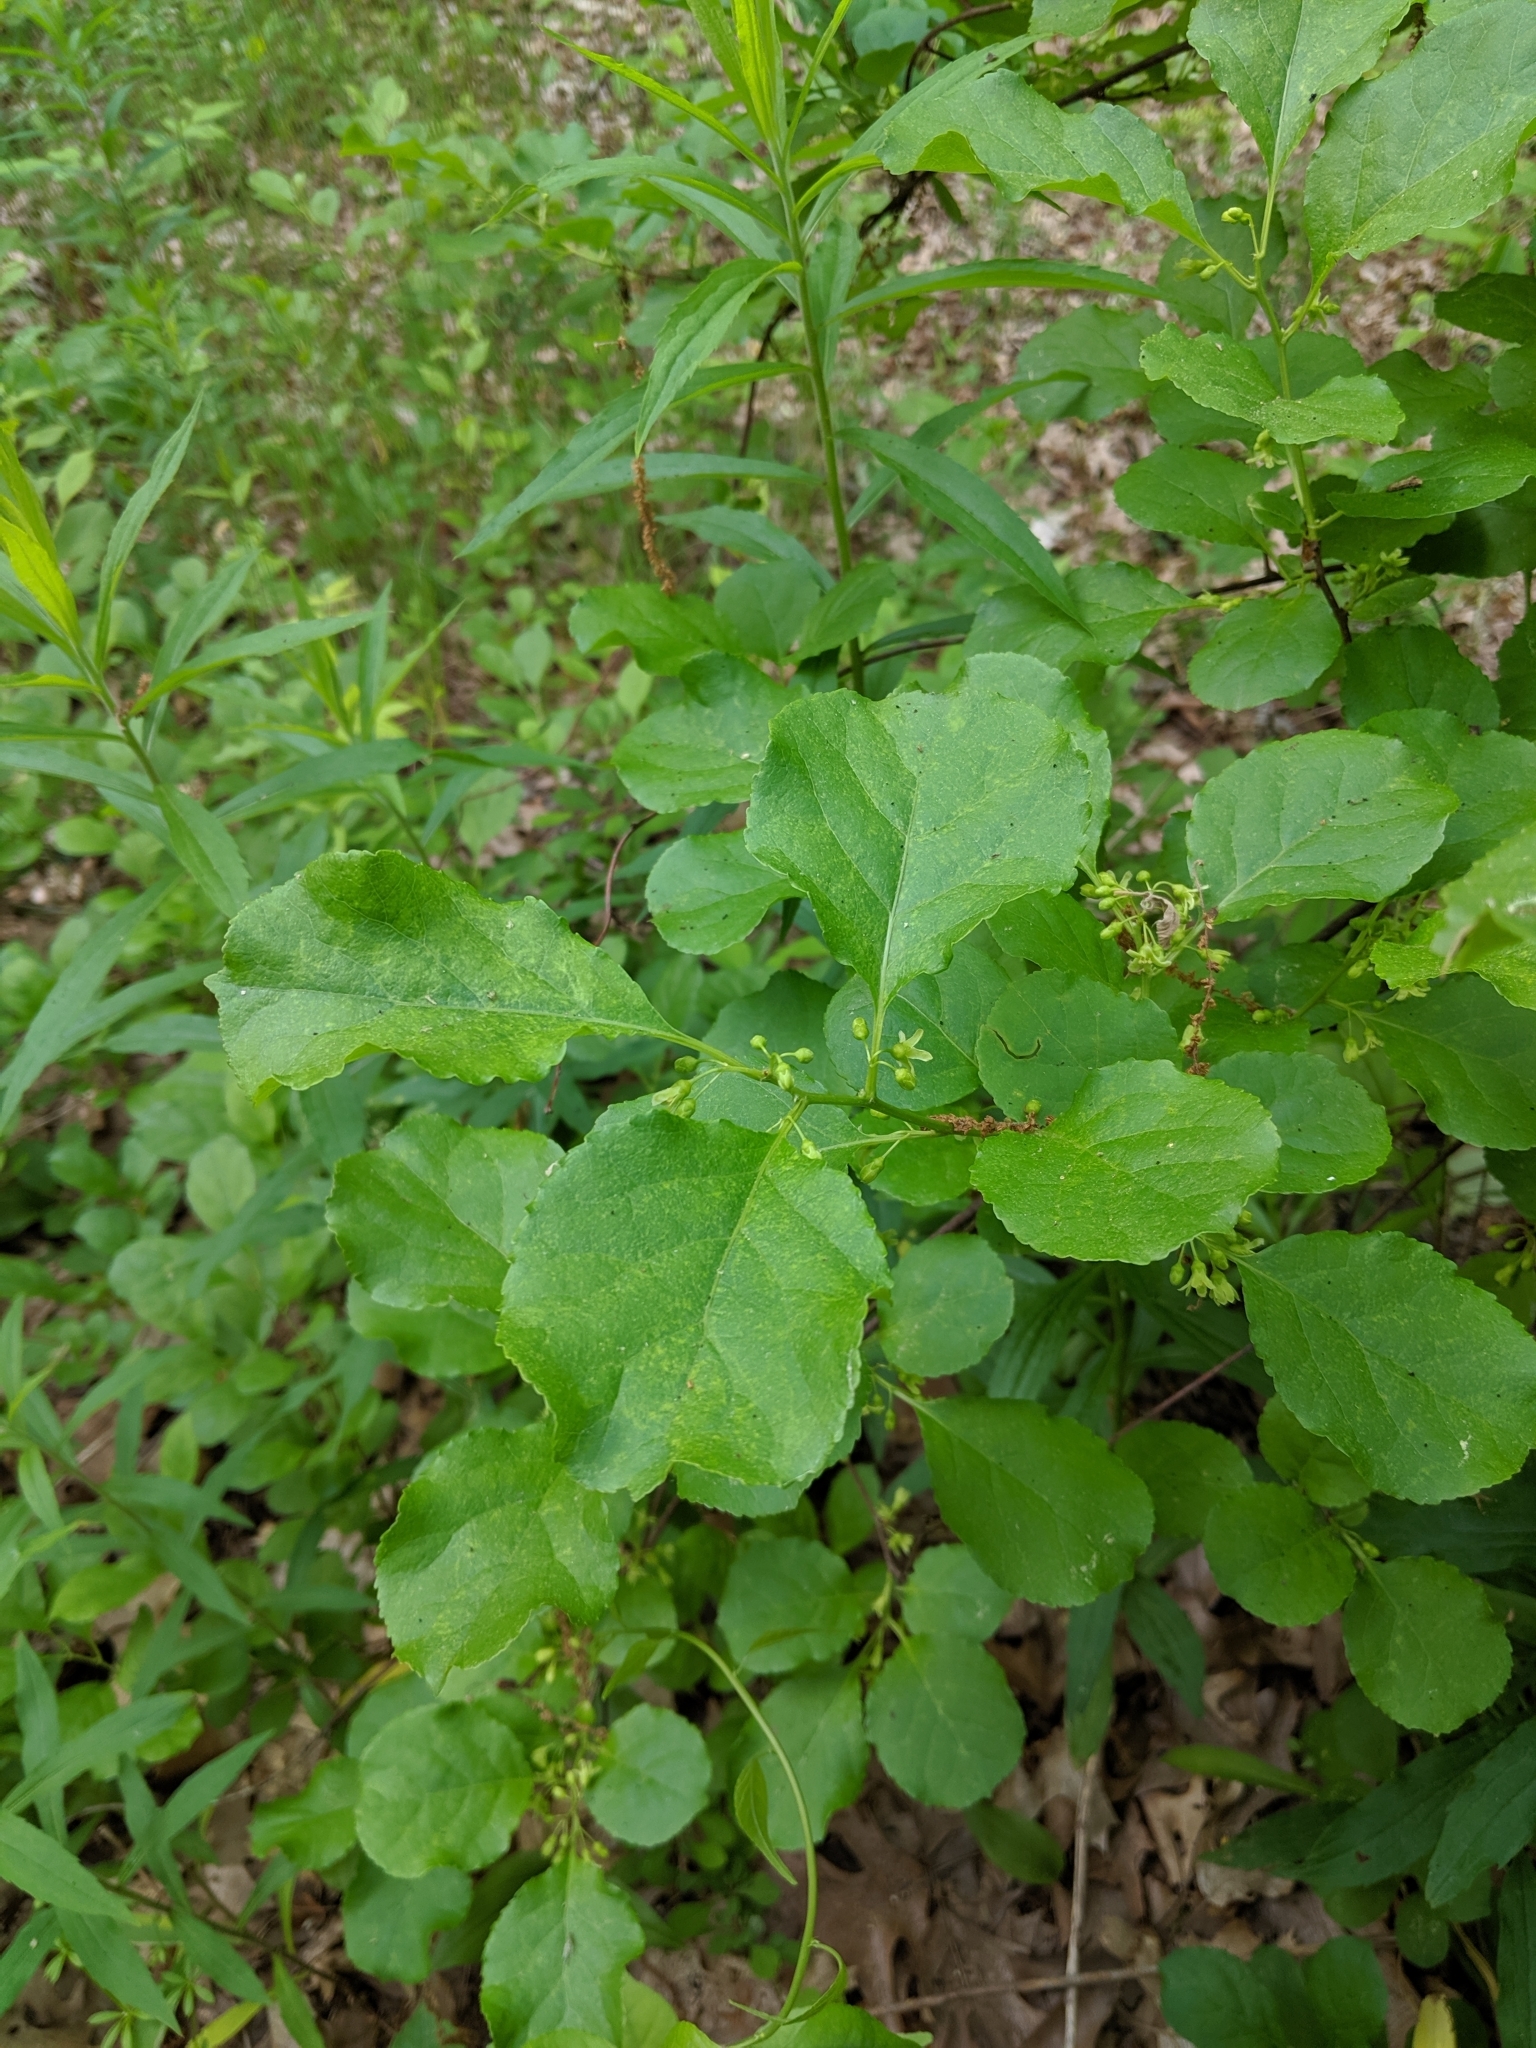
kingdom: Plantae
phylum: Tracheophyta
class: Magnoliopsida
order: Celastrales
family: Celastraceae
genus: Celastrus
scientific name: Celastrus orbiculatus
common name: Oriental bittersweet
